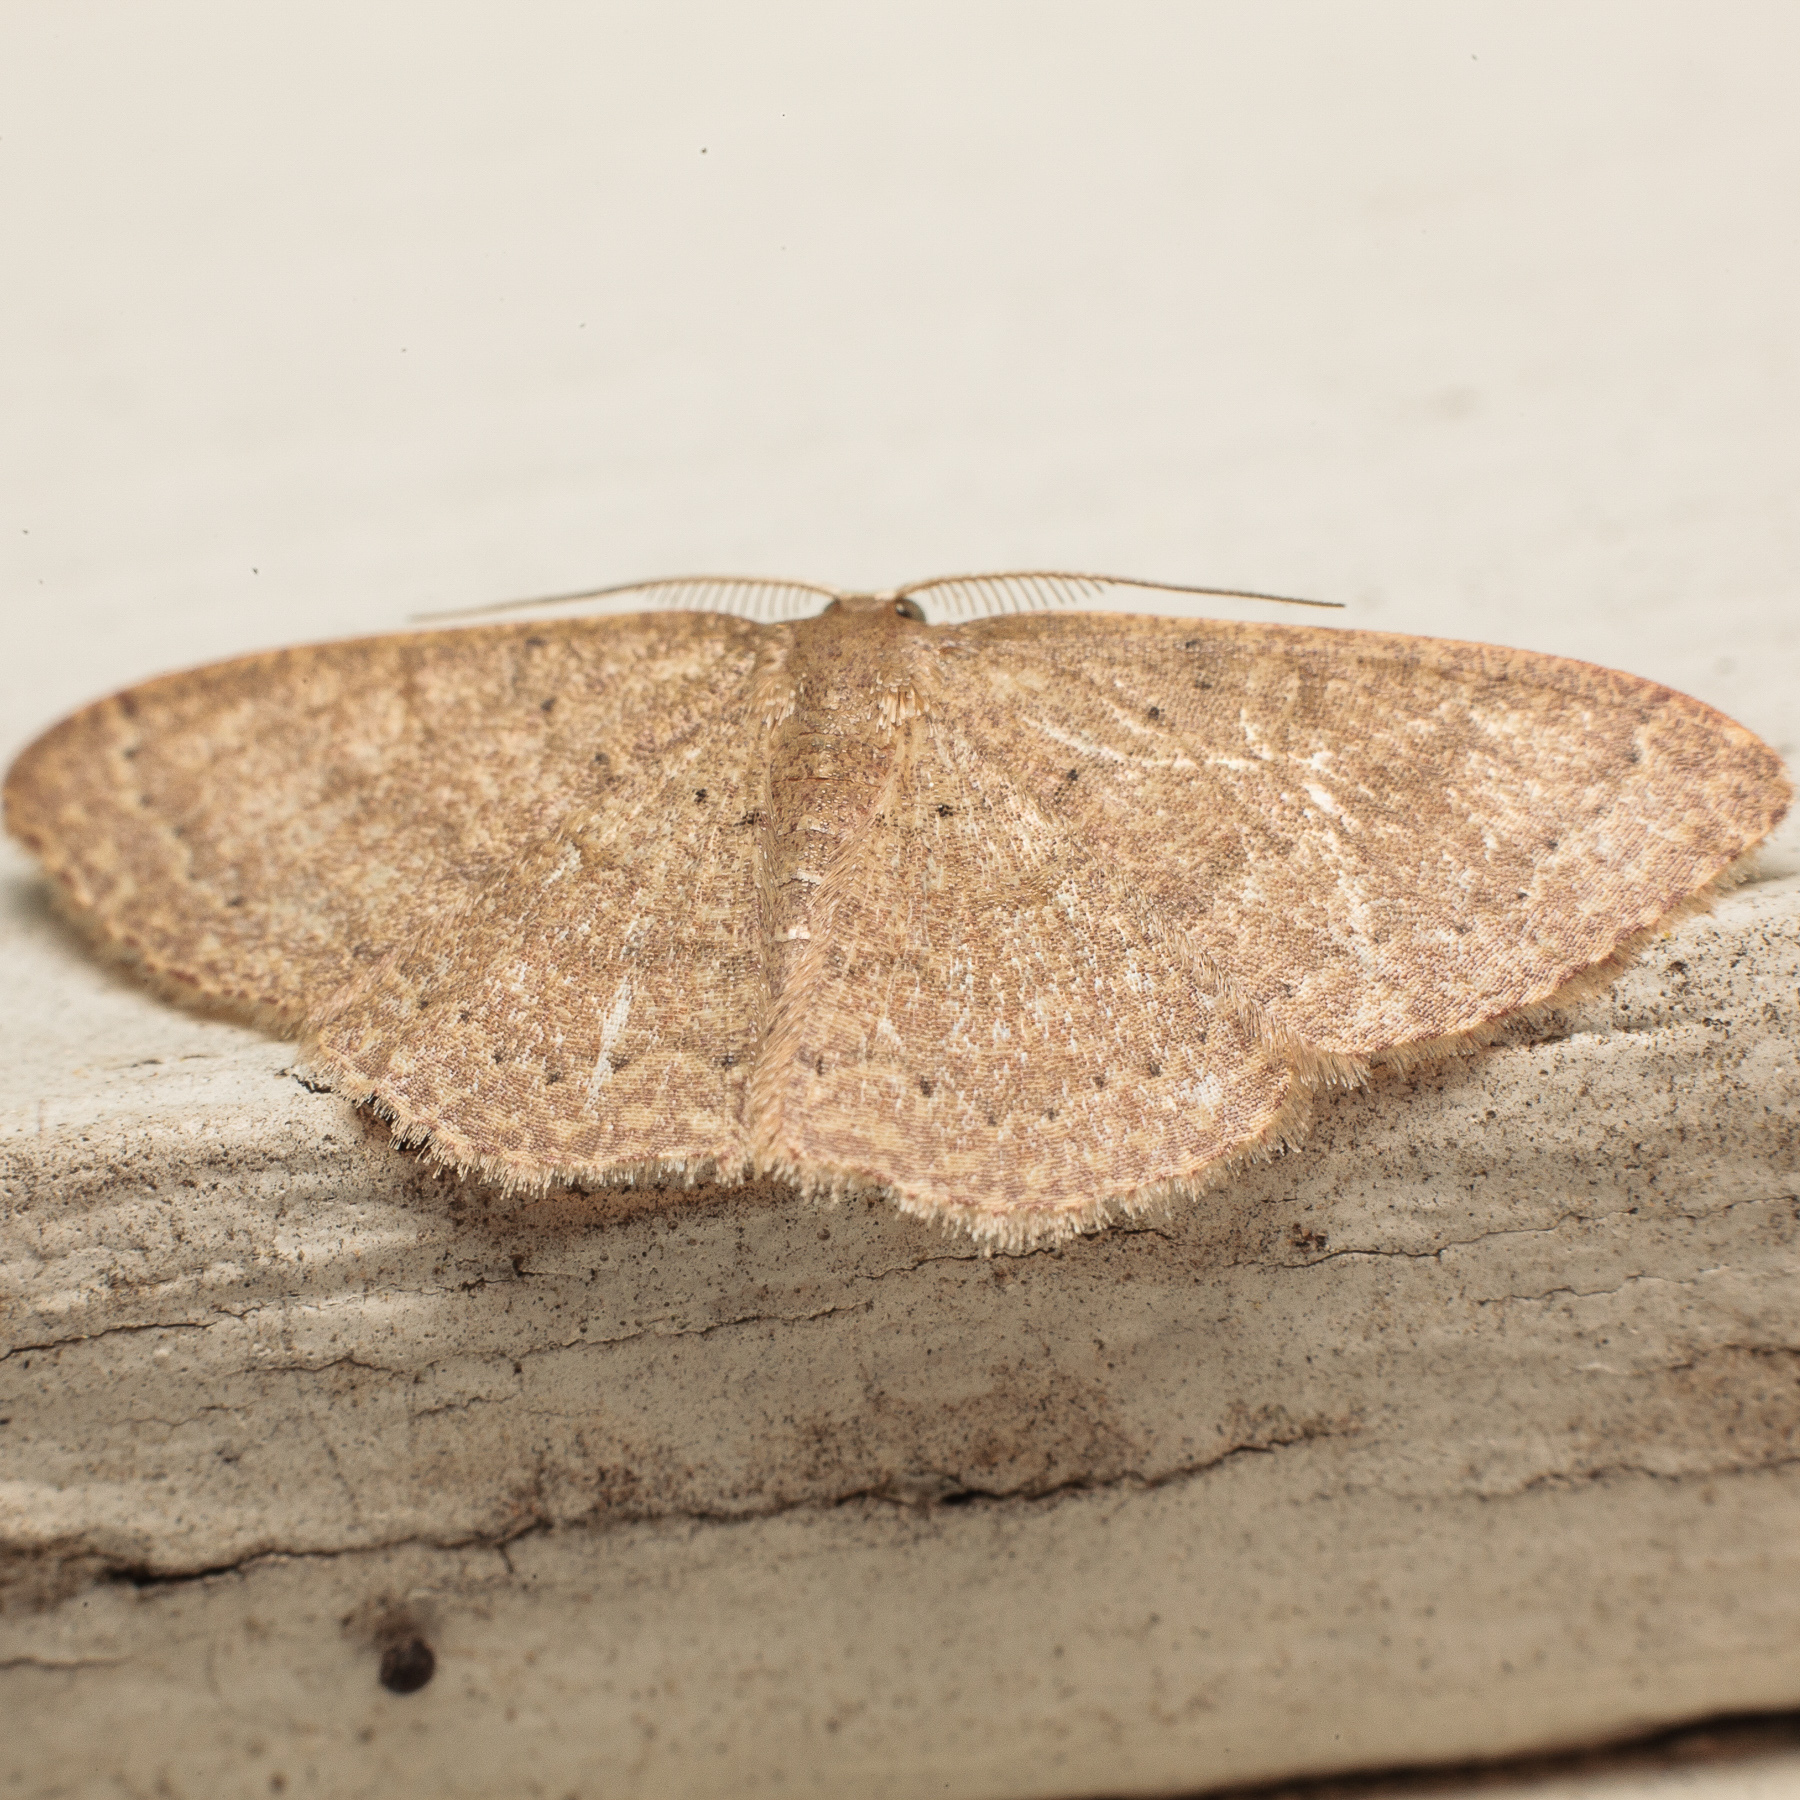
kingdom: Animalia
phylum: Arthropoda
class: Insecta
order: Lepidoptera
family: Geometridae
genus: Pleuroprucha
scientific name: Pleuroprucha insulsaria
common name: Common tan wave
